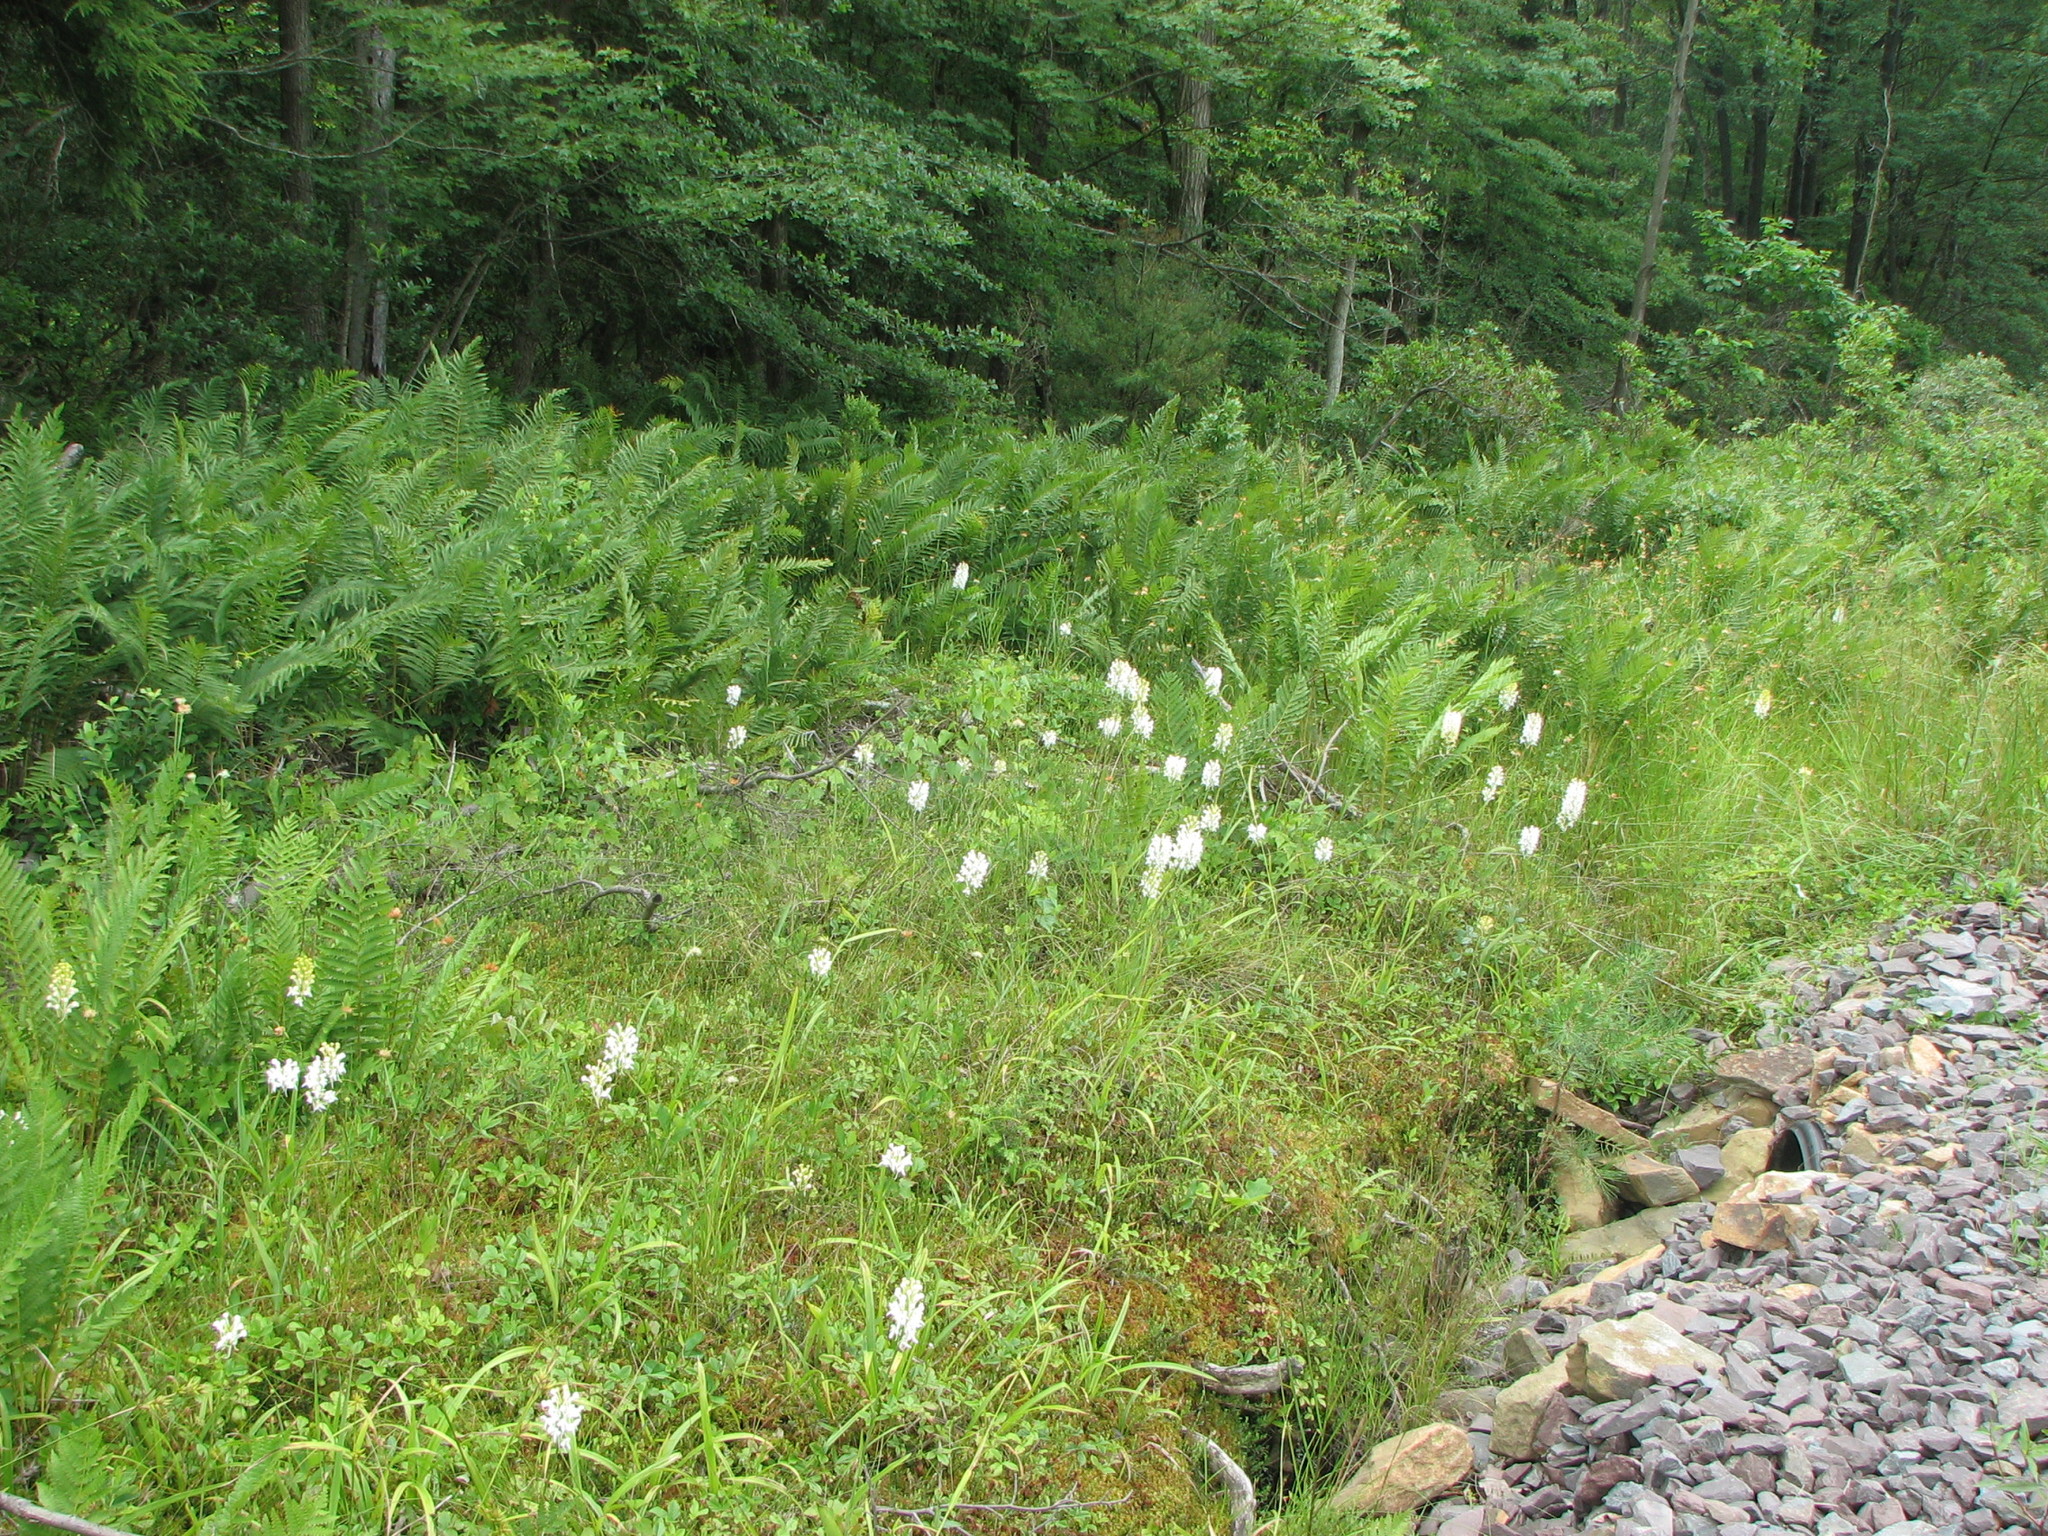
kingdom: Plantae
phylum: Tracheophyta
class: Liliopsida
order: Asparagales
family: Orchidaceae
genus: Platanthera
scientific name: Platanthera blephariglottis
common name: White fringed orchid
